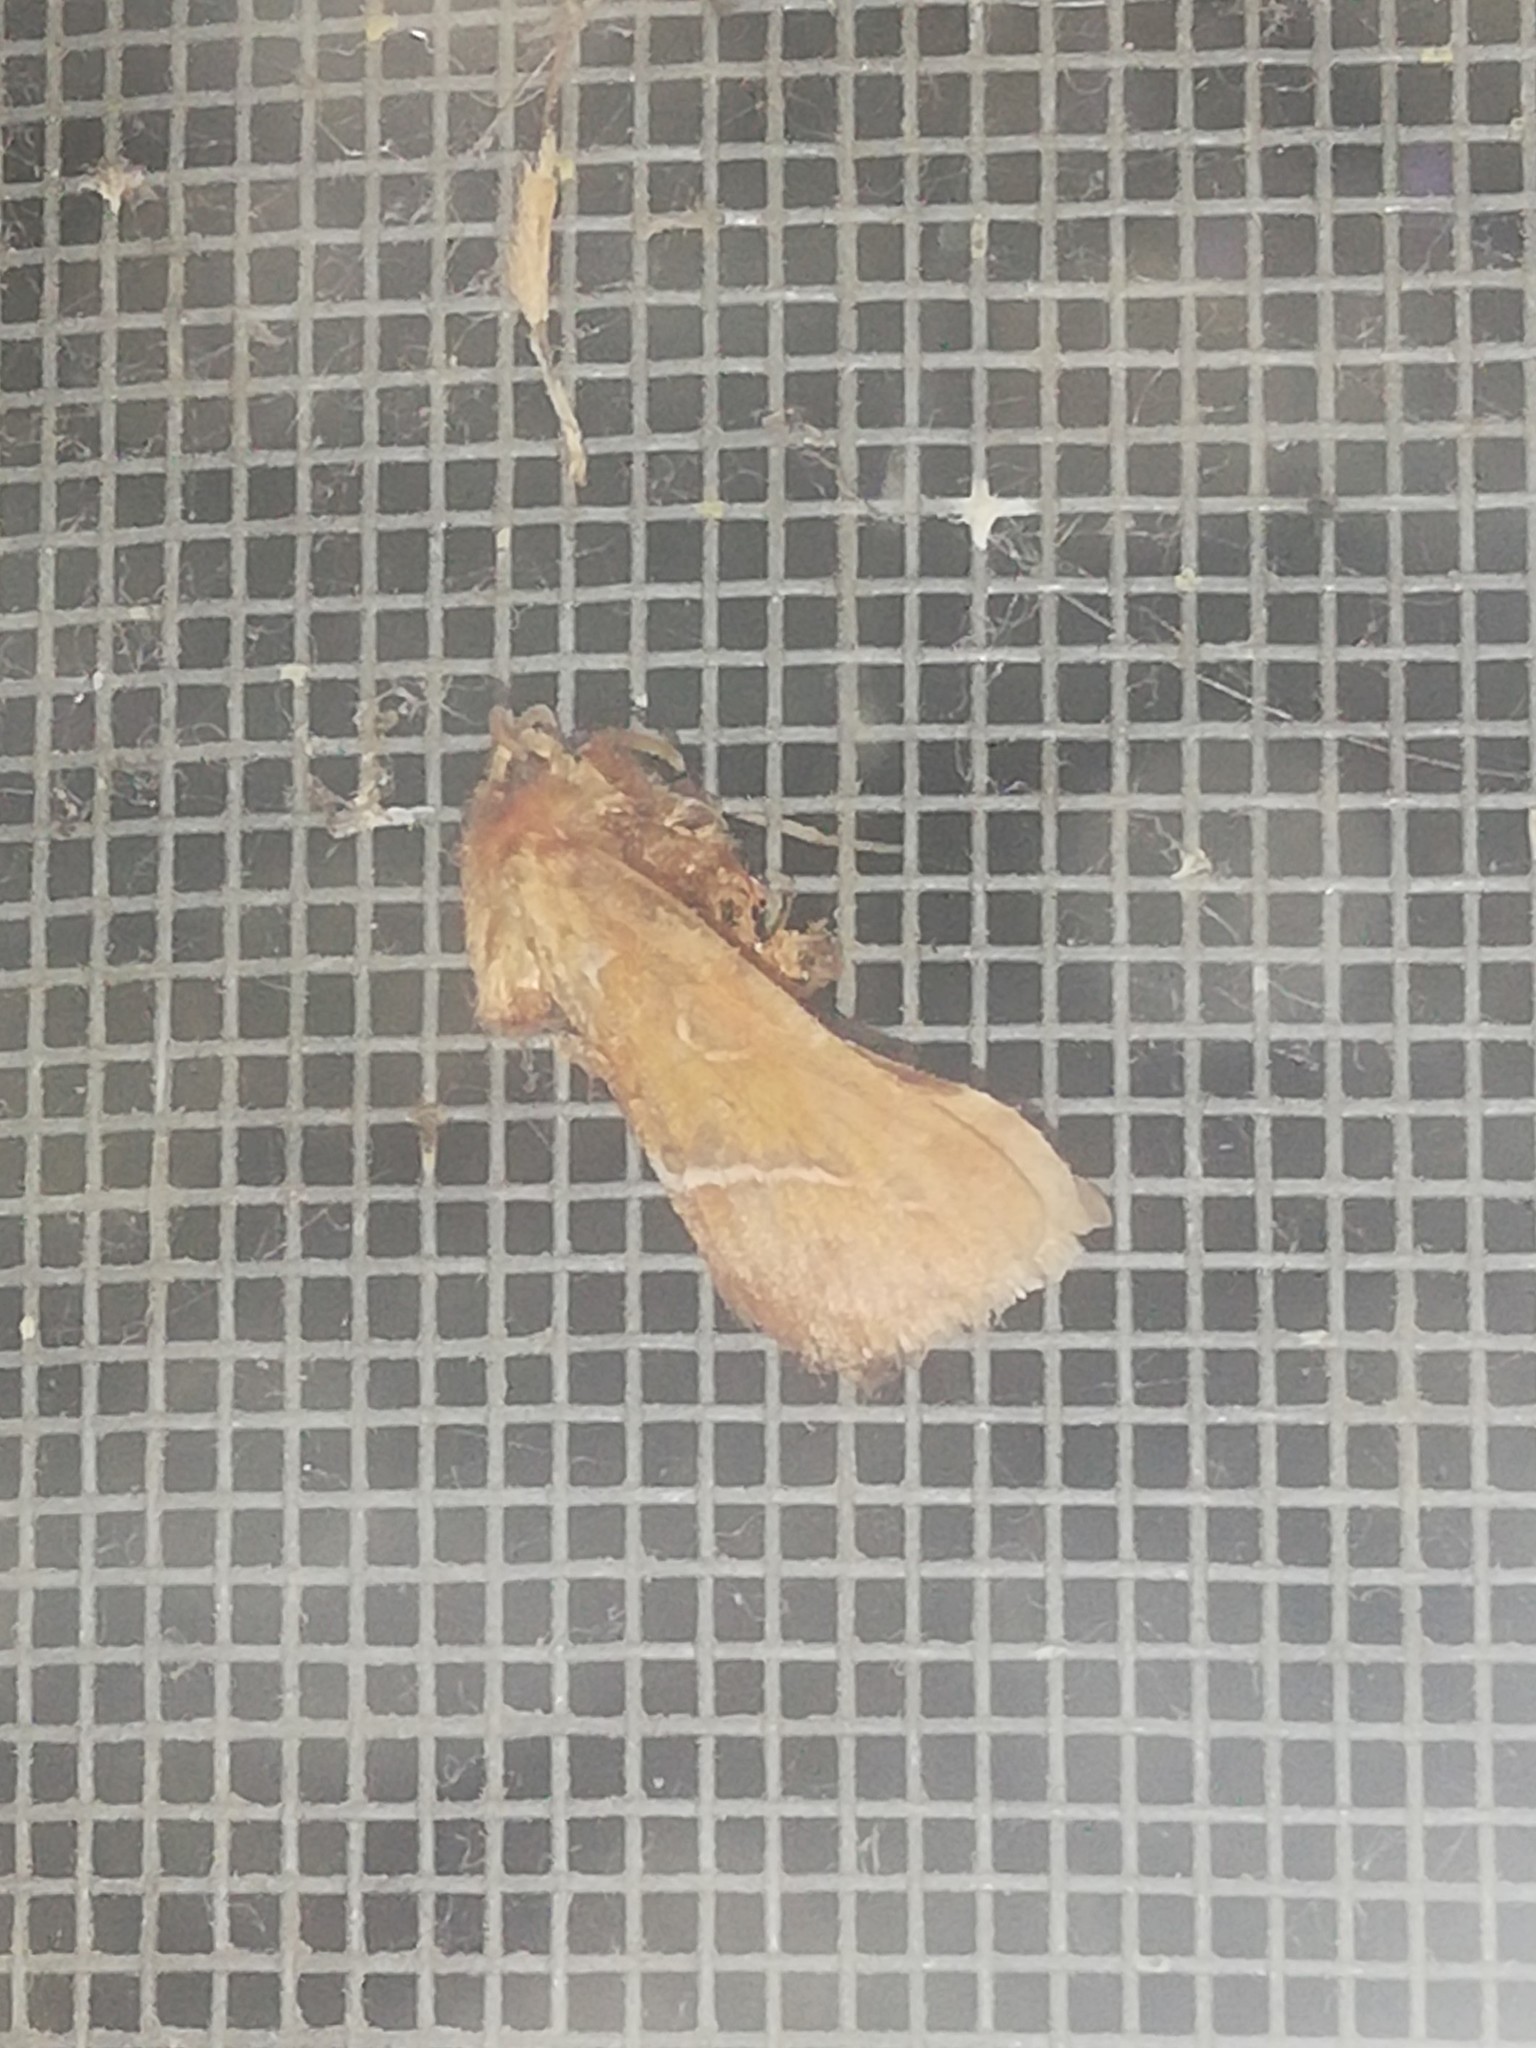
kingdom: Animalia
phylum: Arthropoda
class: Insecta
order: Lepidoptera
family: Hepialidae
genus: Triodia
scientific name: Triodia sylvina
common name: Orange swift
